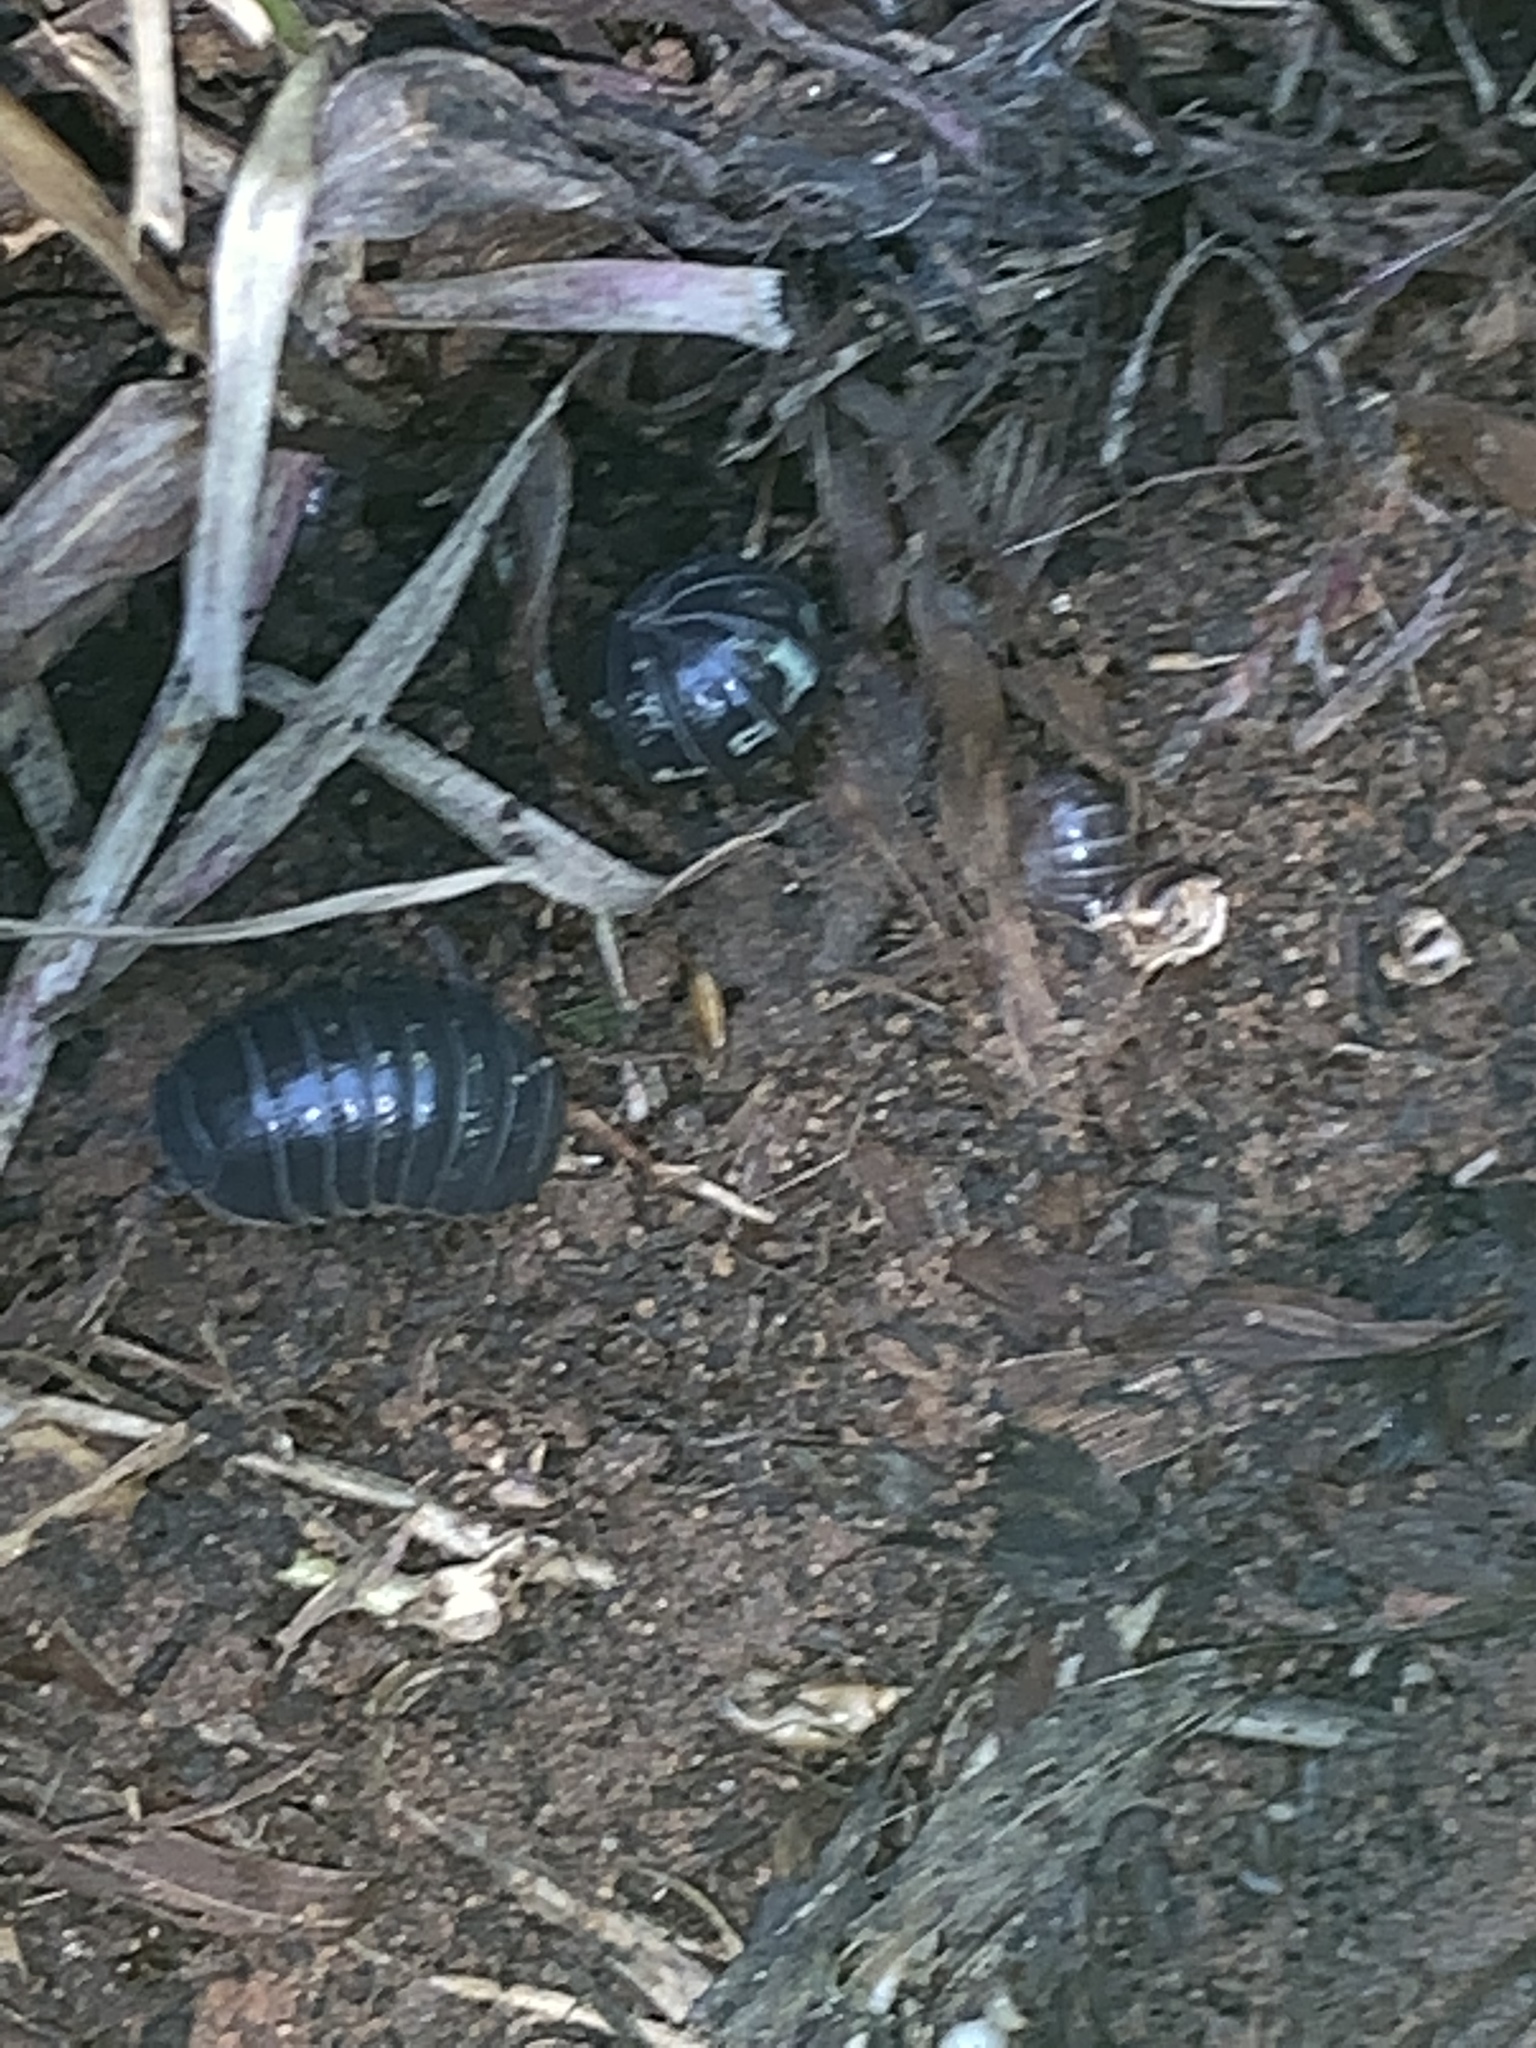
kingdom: Animalia
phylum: Arthropoda
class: Malacostraca
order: Isopoda
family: Armadillidiidae
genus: Armadillidium
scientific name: Armadillidium vulgare
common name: Common pill woodlouse
